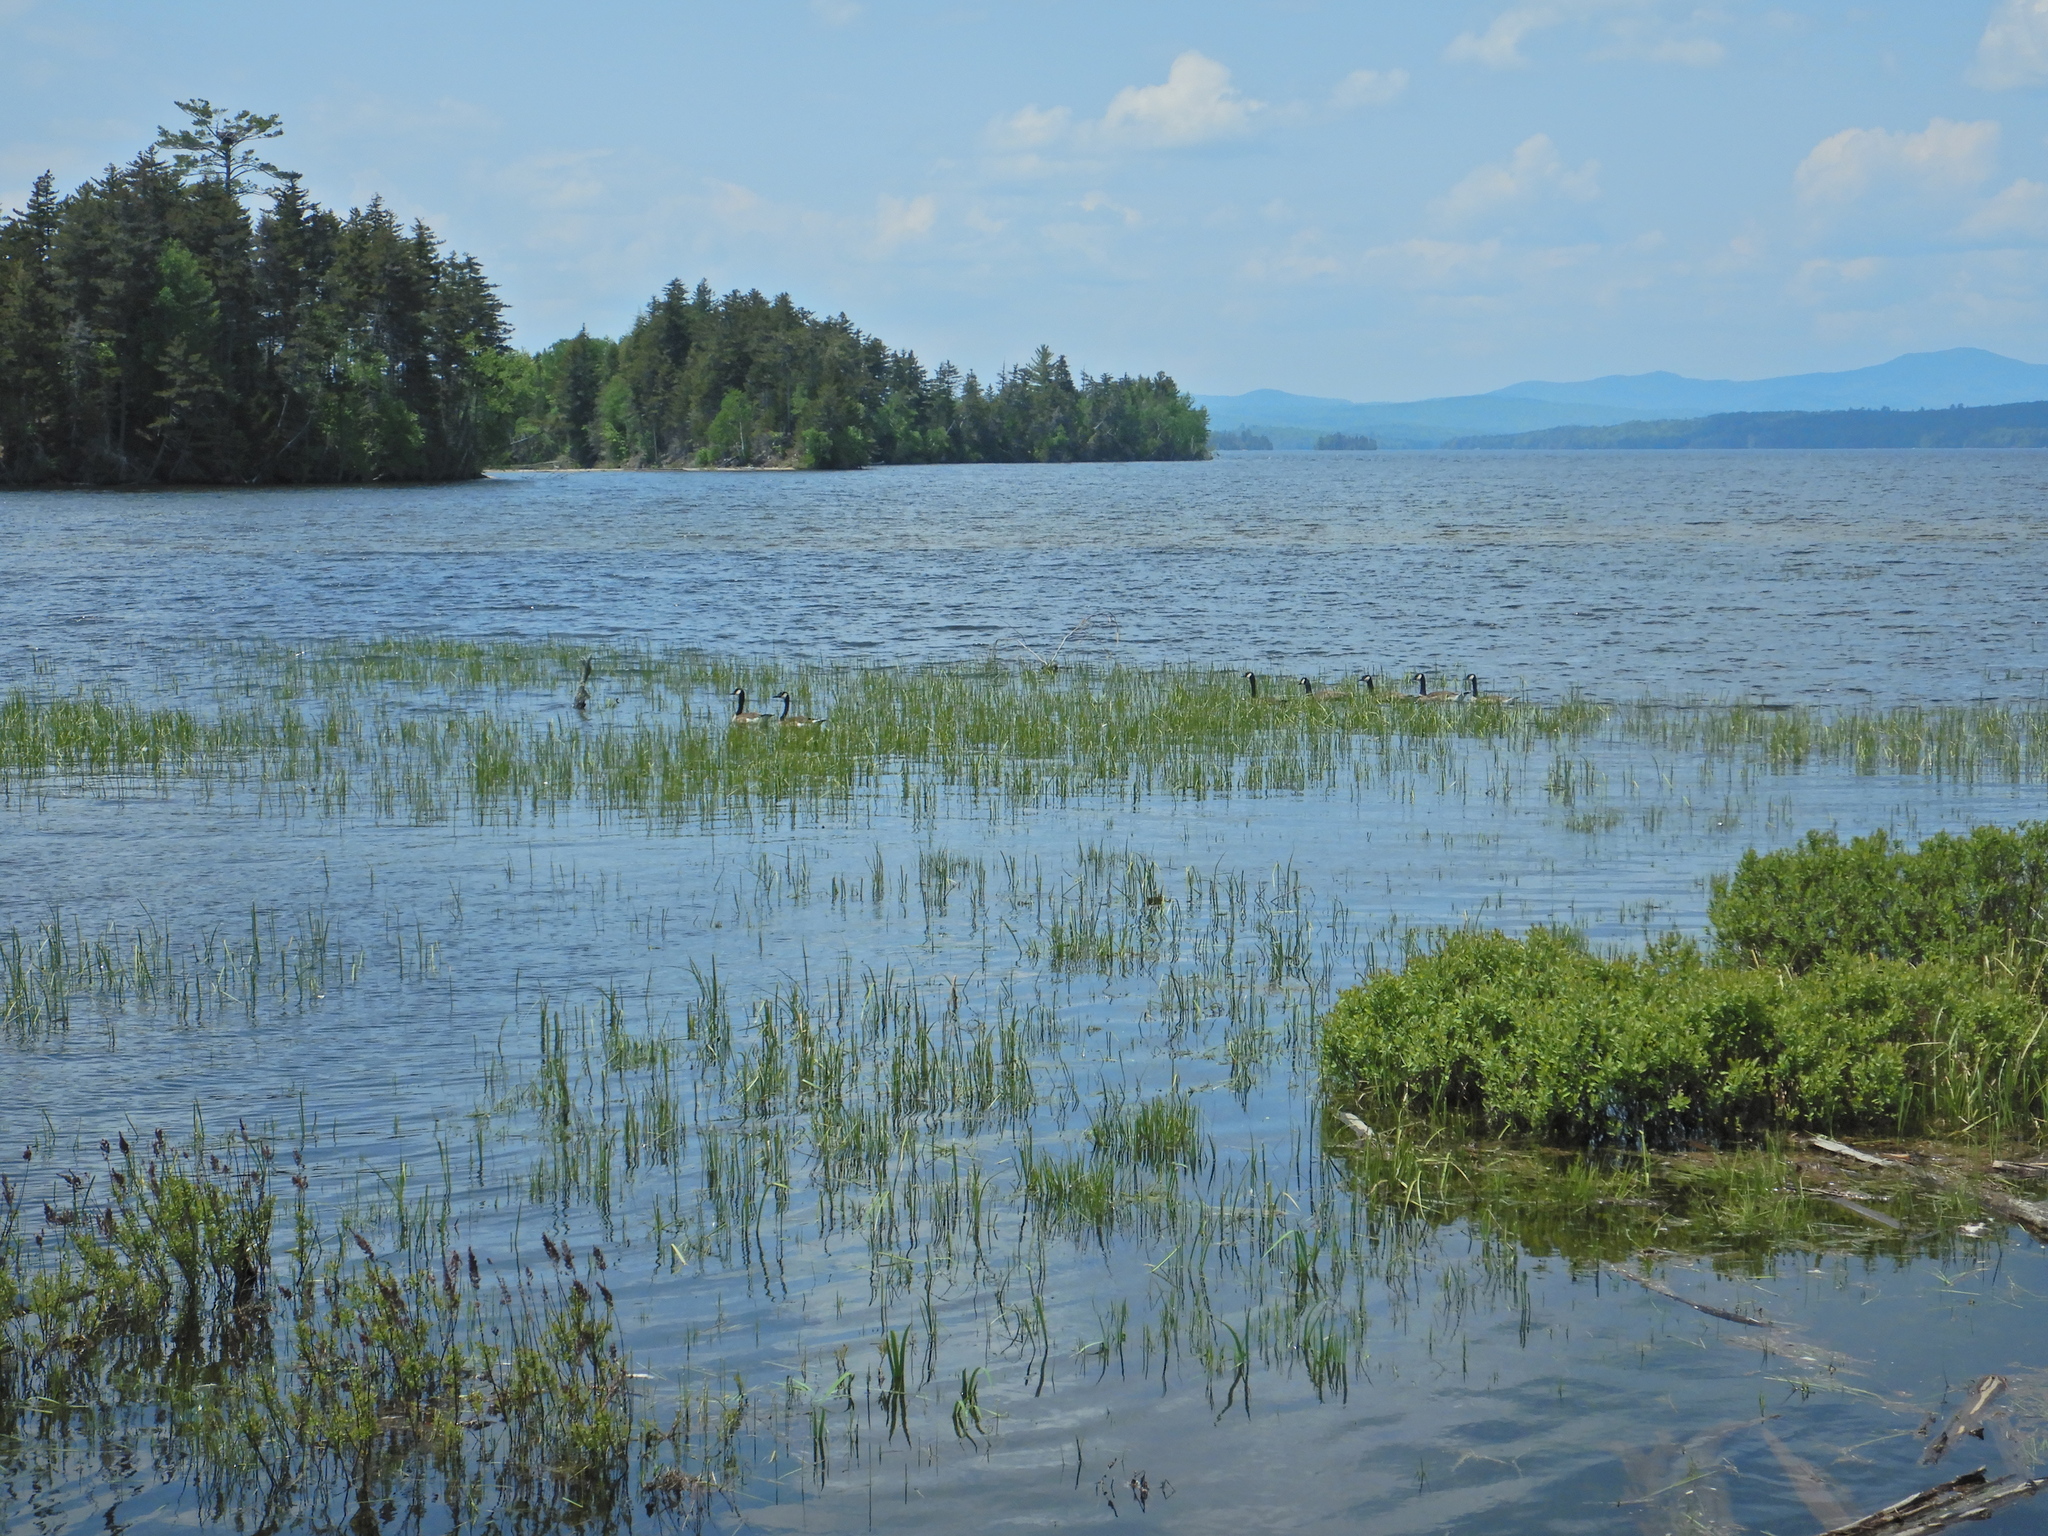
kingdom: Animalia
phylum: Chordata
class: Aves
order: Anseriformes
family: Anatidae
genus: Branta
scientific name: Branta canadensis
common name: Canada goose
